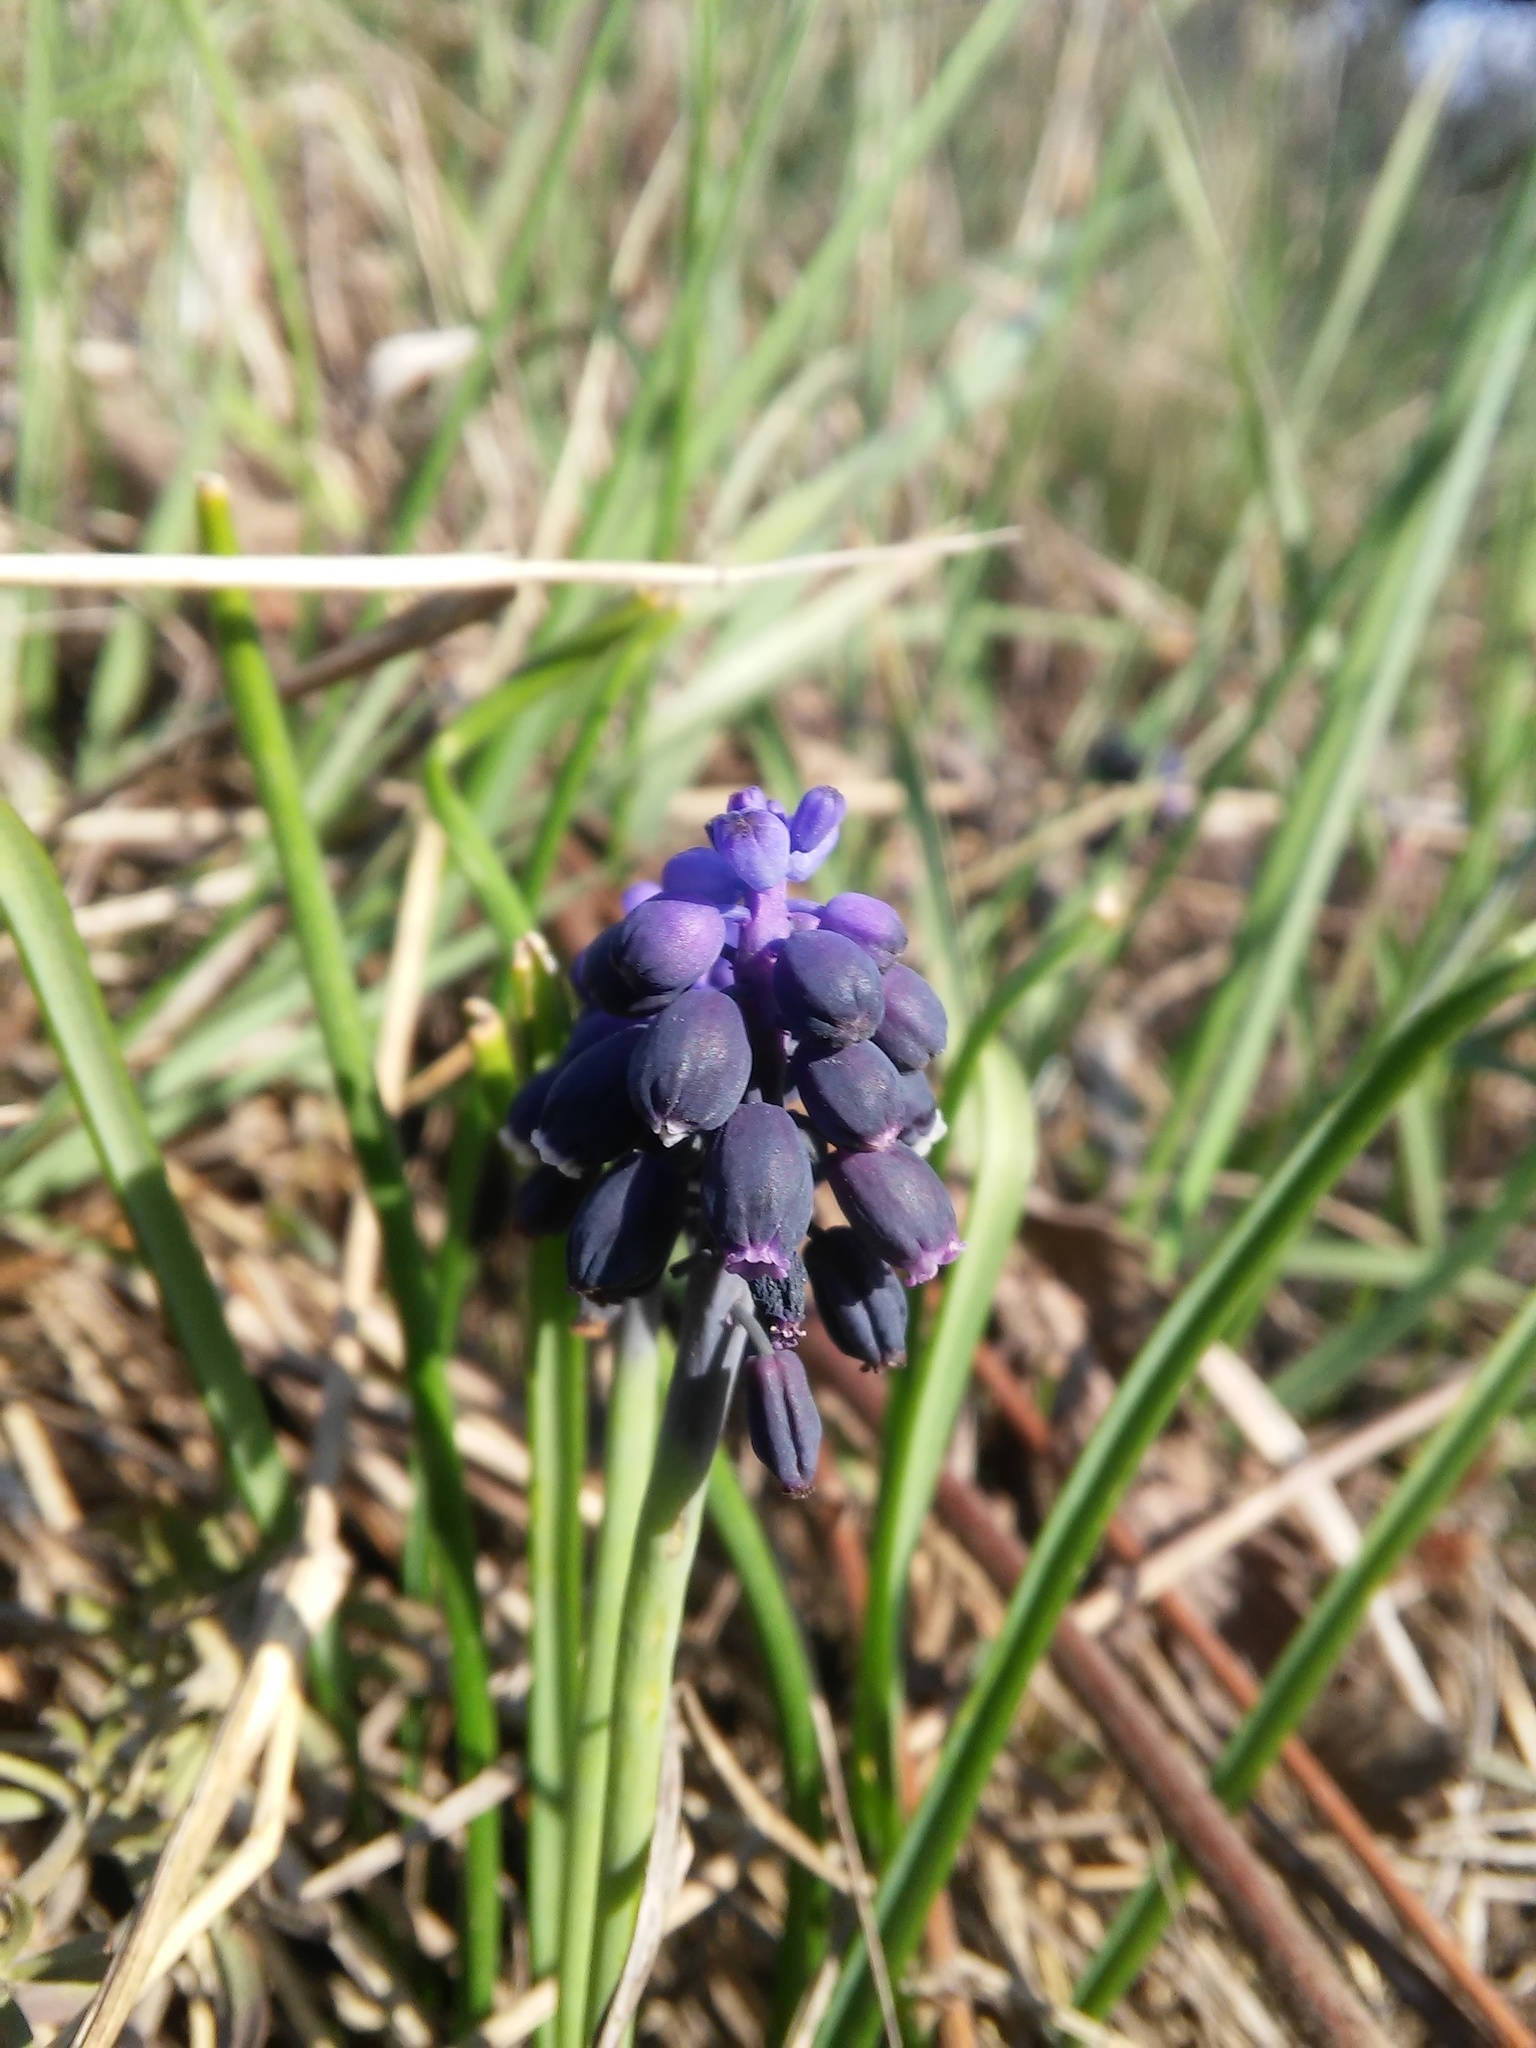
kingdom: Plantae
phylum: Tracheophyta
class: Liliopsida
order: Asparagales
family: Asparagaceae
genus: Muscari
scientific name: Muscari neglectum
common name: Grape-hyacinth
